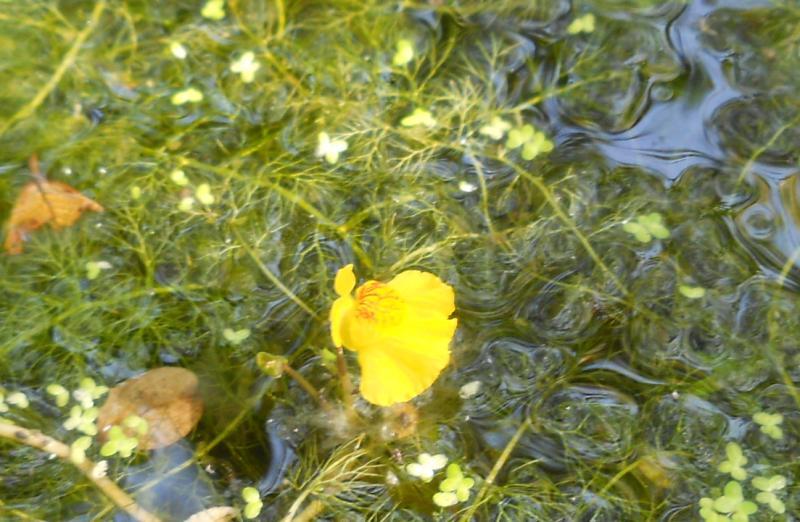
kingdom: Plantae
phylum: Tracheophyta
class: Magnoliopsida
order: Lamiales
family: Lentibulariaceae
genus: Utricularia
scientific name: Utricularia australis
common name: Bladderwort
